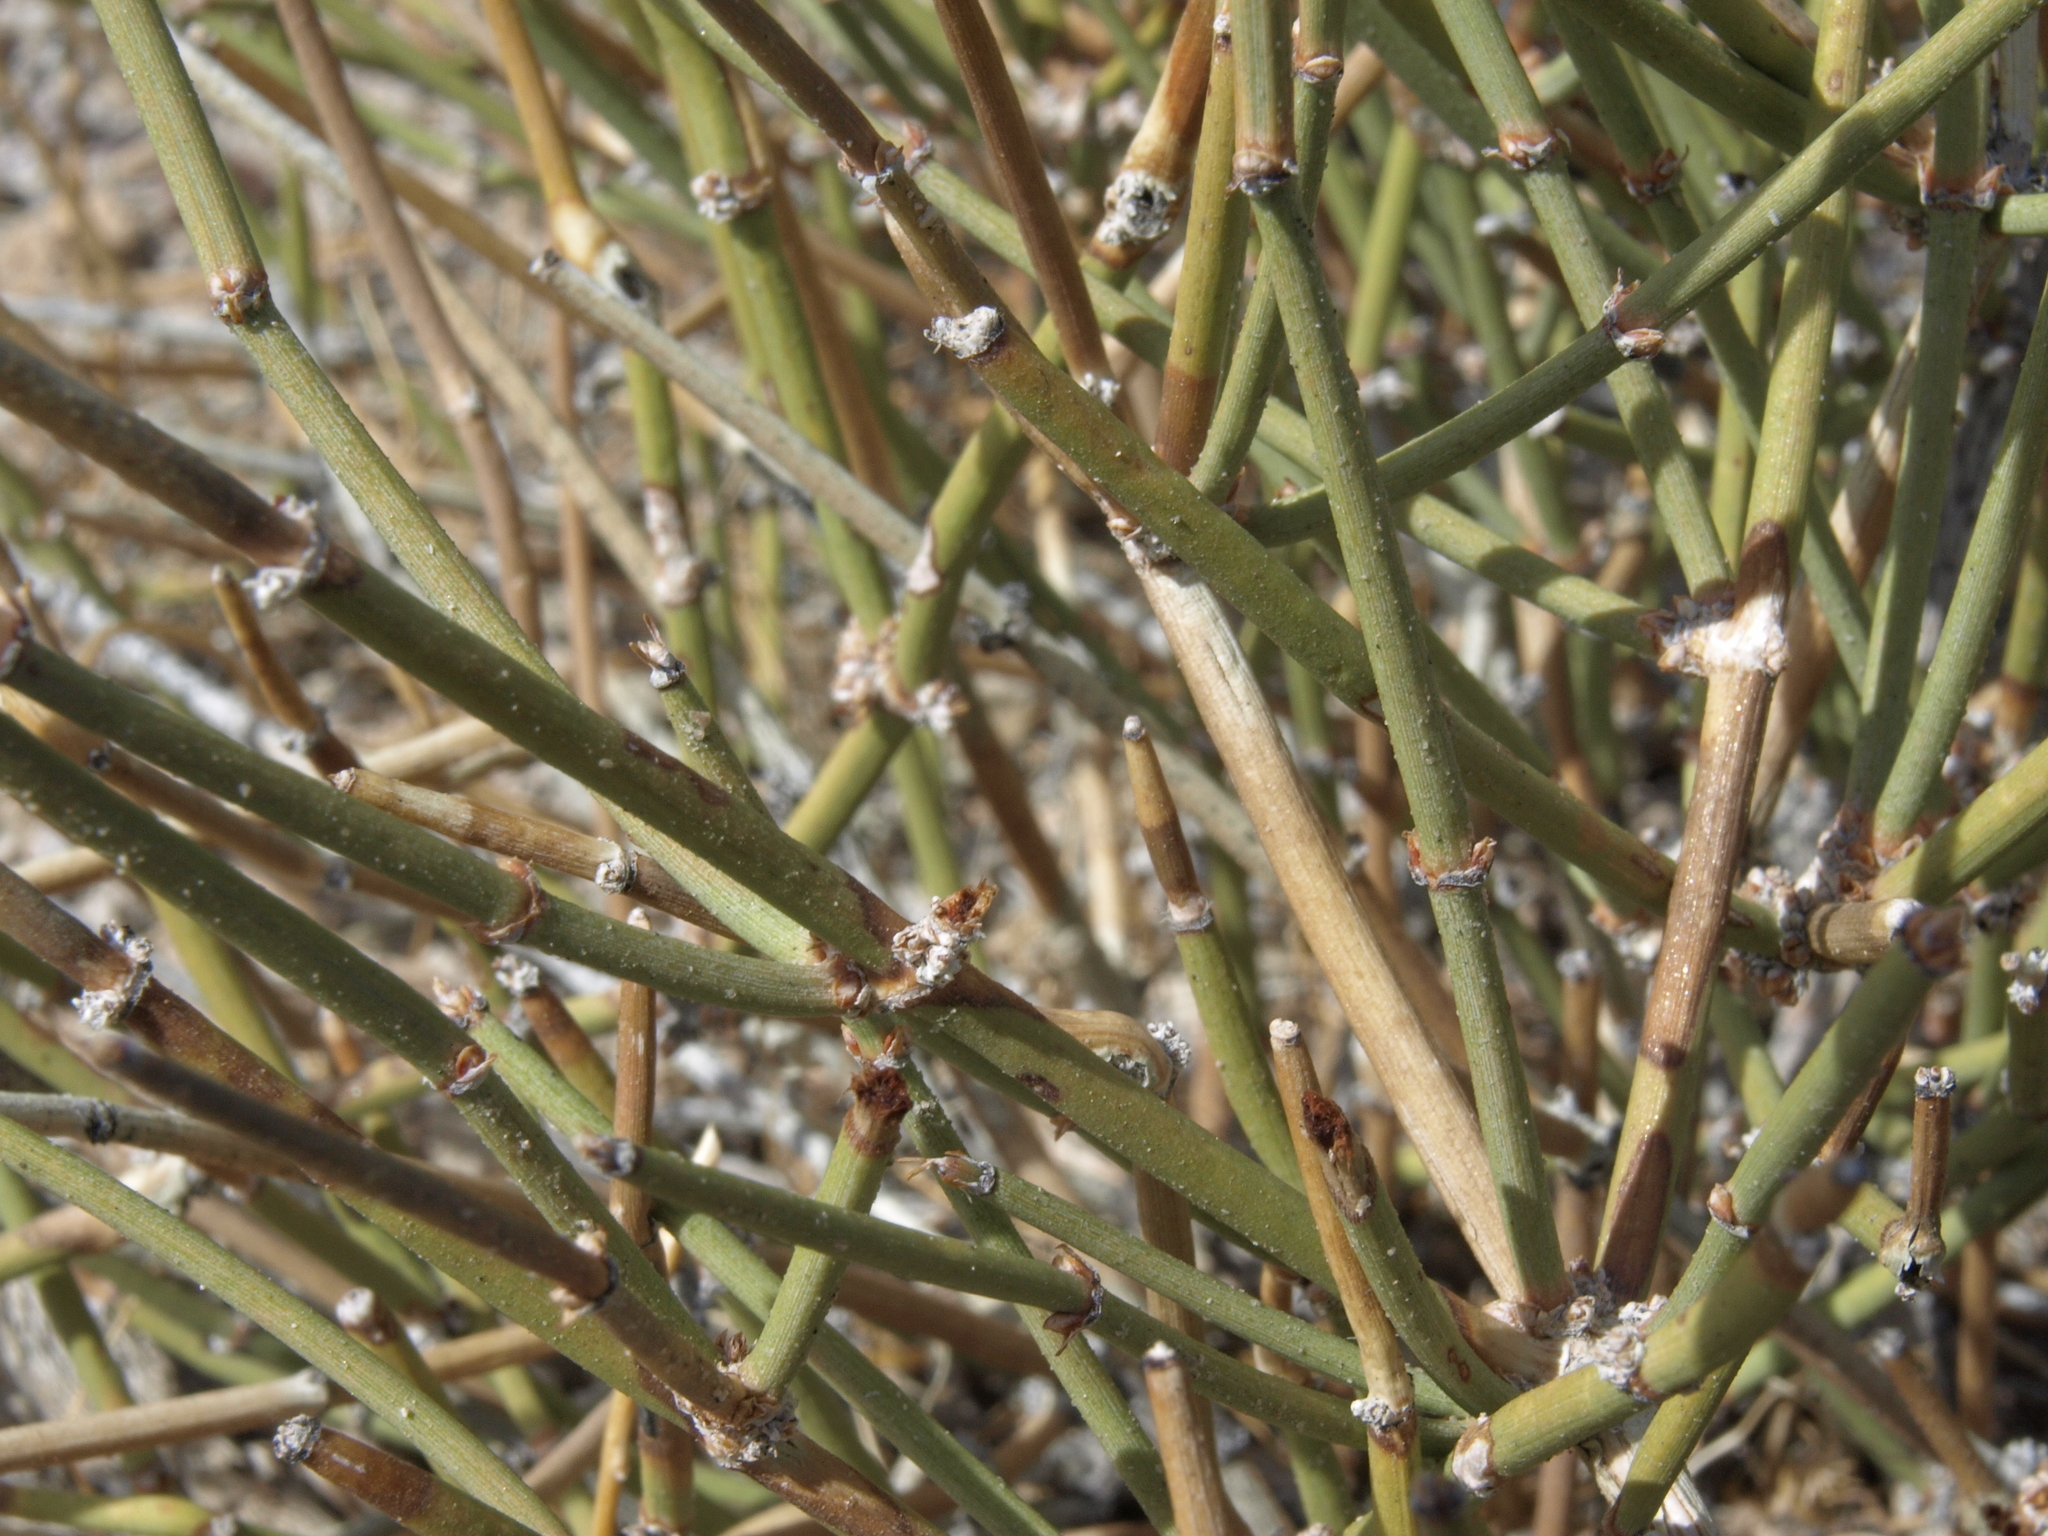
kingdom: Plantae
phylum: Tracheophyta
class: Gnetopsida
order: Ephedrales
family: Ephedraceae
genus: Ephedra
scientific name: Ephedra aspera
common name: Boundary ephedra
